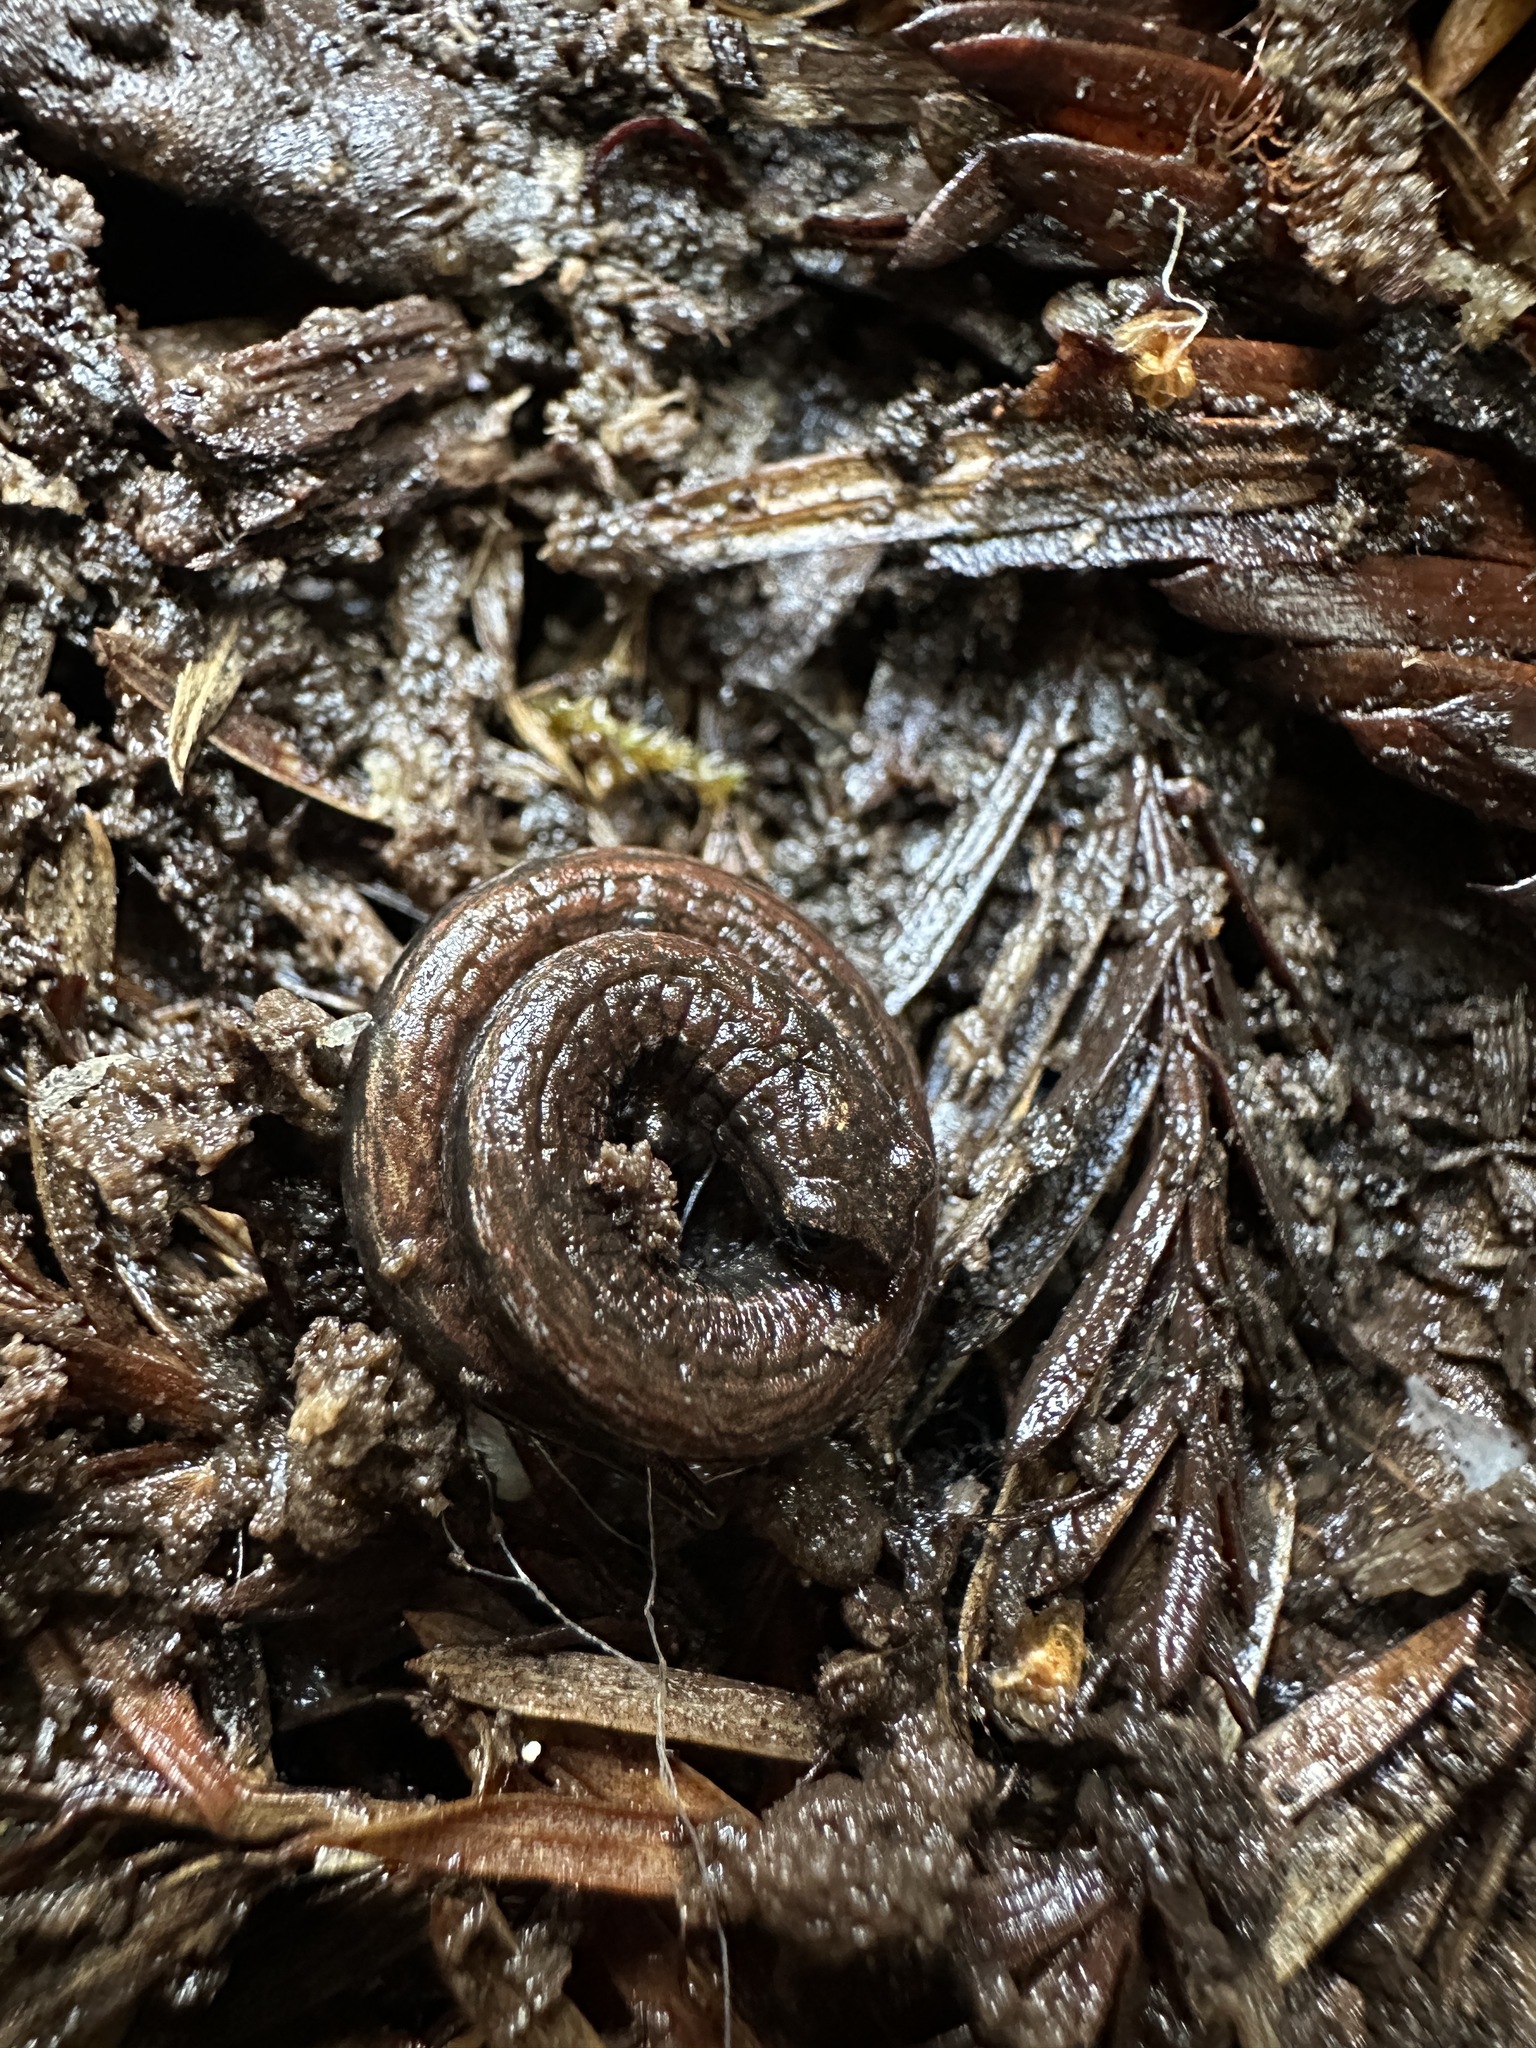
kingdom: Animalia
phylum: Chordata
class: Amphibia
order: Caudata
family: Plethodontidae
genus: Batrachoseps
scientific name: Batrachoseps attenuatus
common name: California slender salamander
